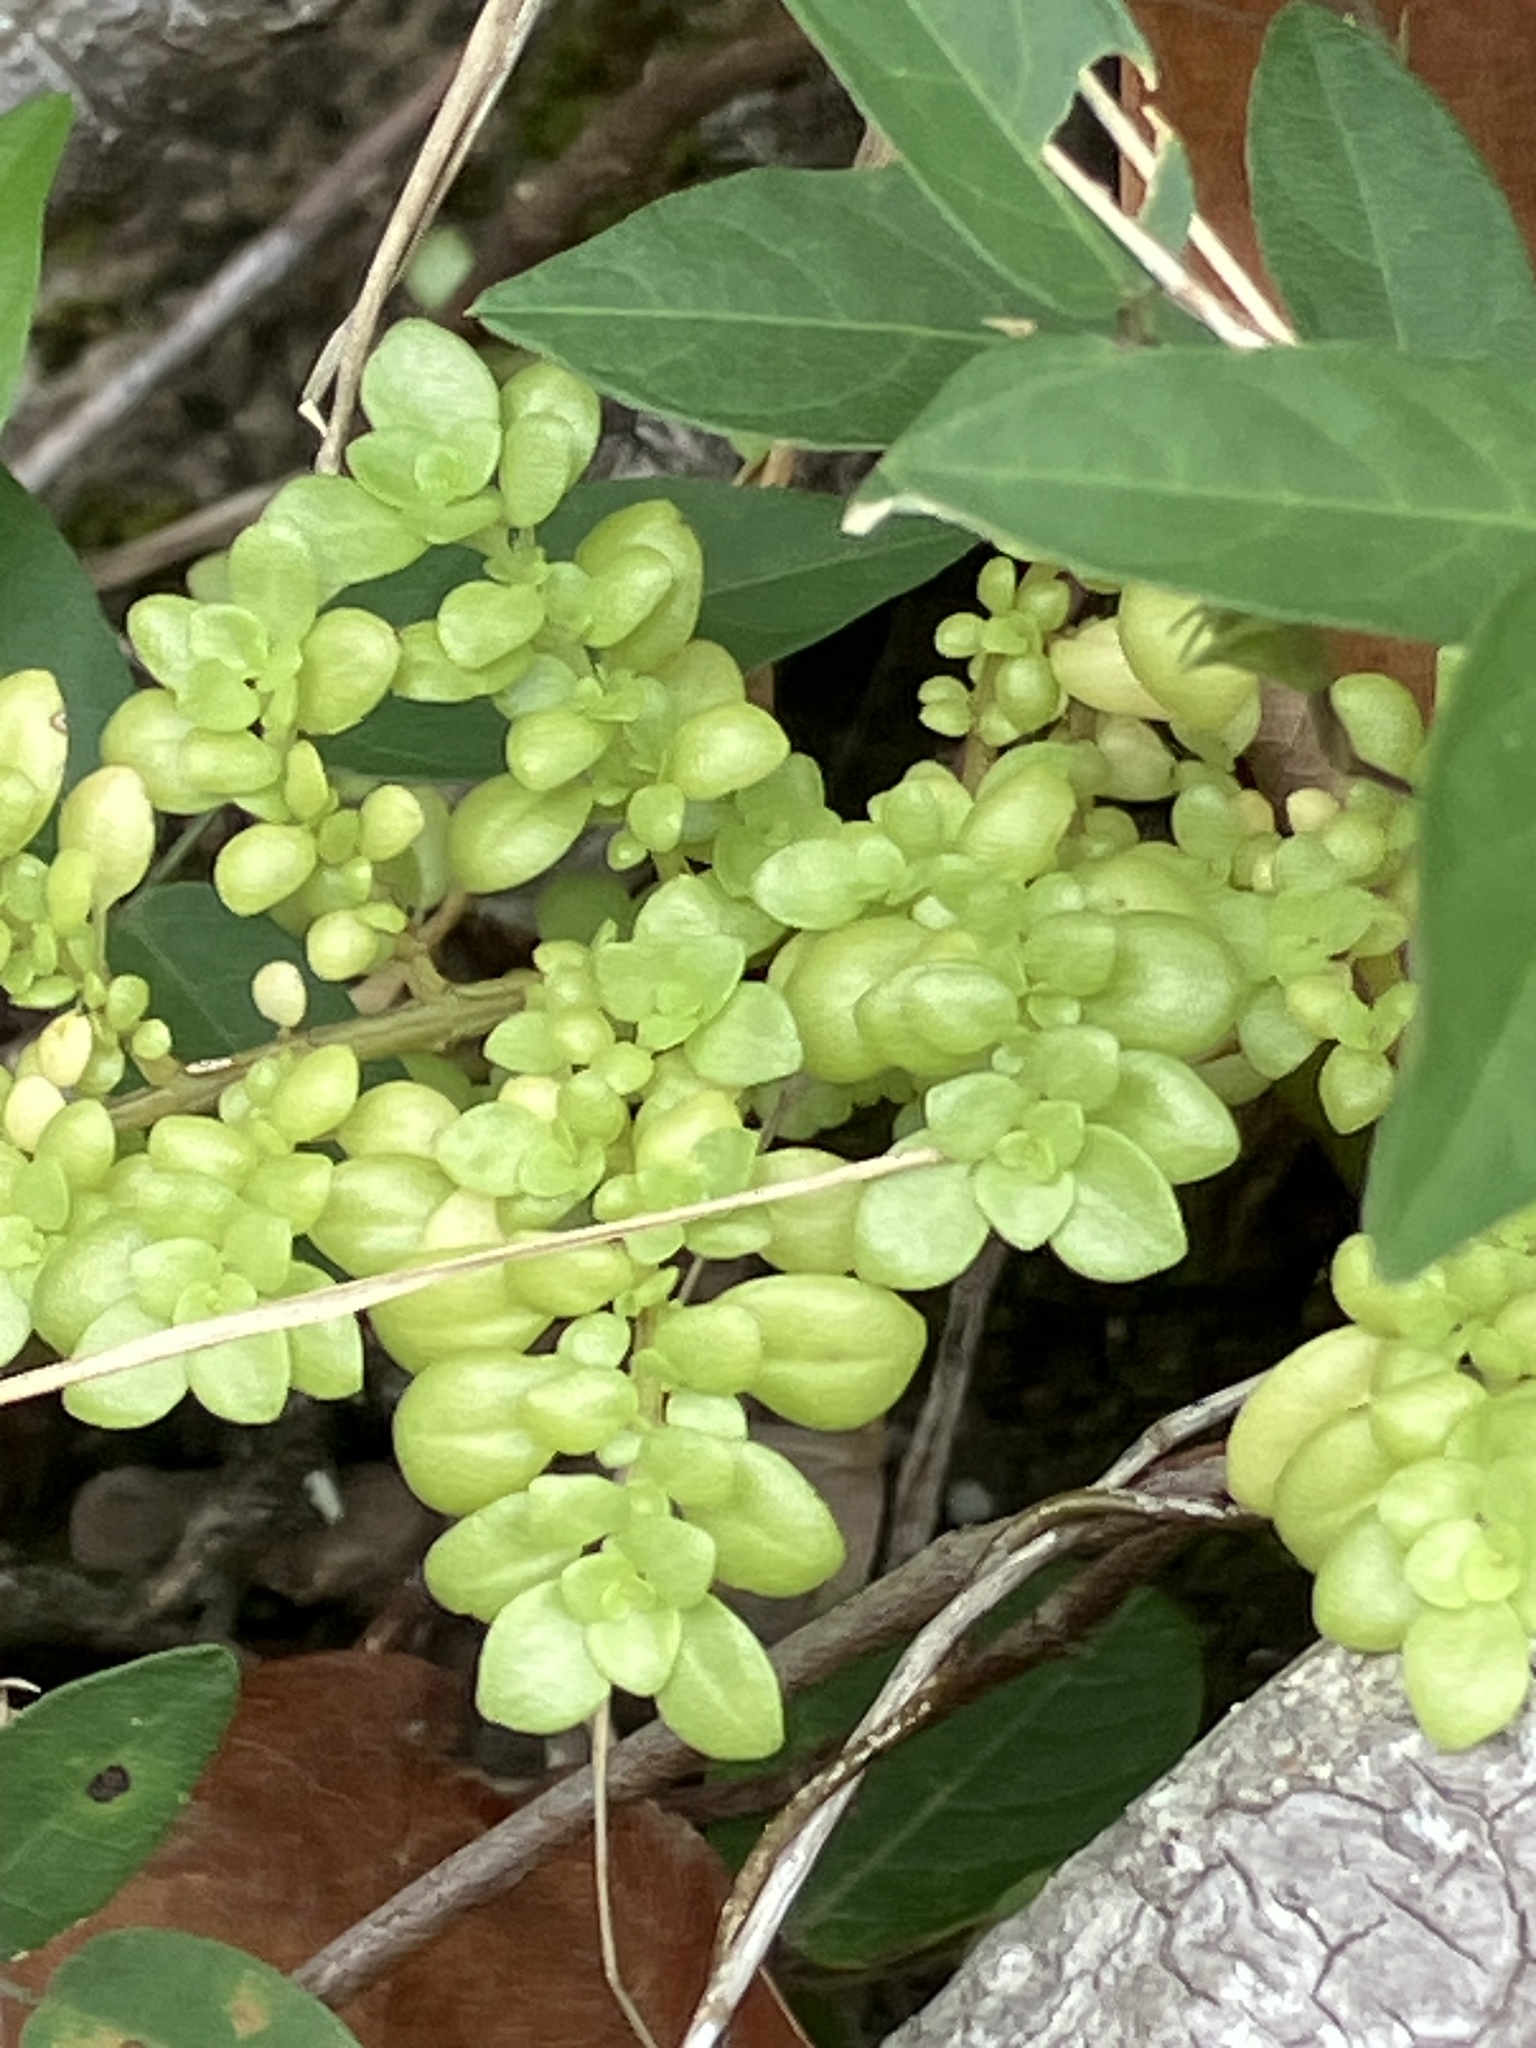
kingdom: Plantae
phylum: Tracheophyta
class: Magnoliopsida
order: Rosales
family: Urticaceae
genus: Pilea
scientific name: Pilea microphylla
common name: Artillery-plant
